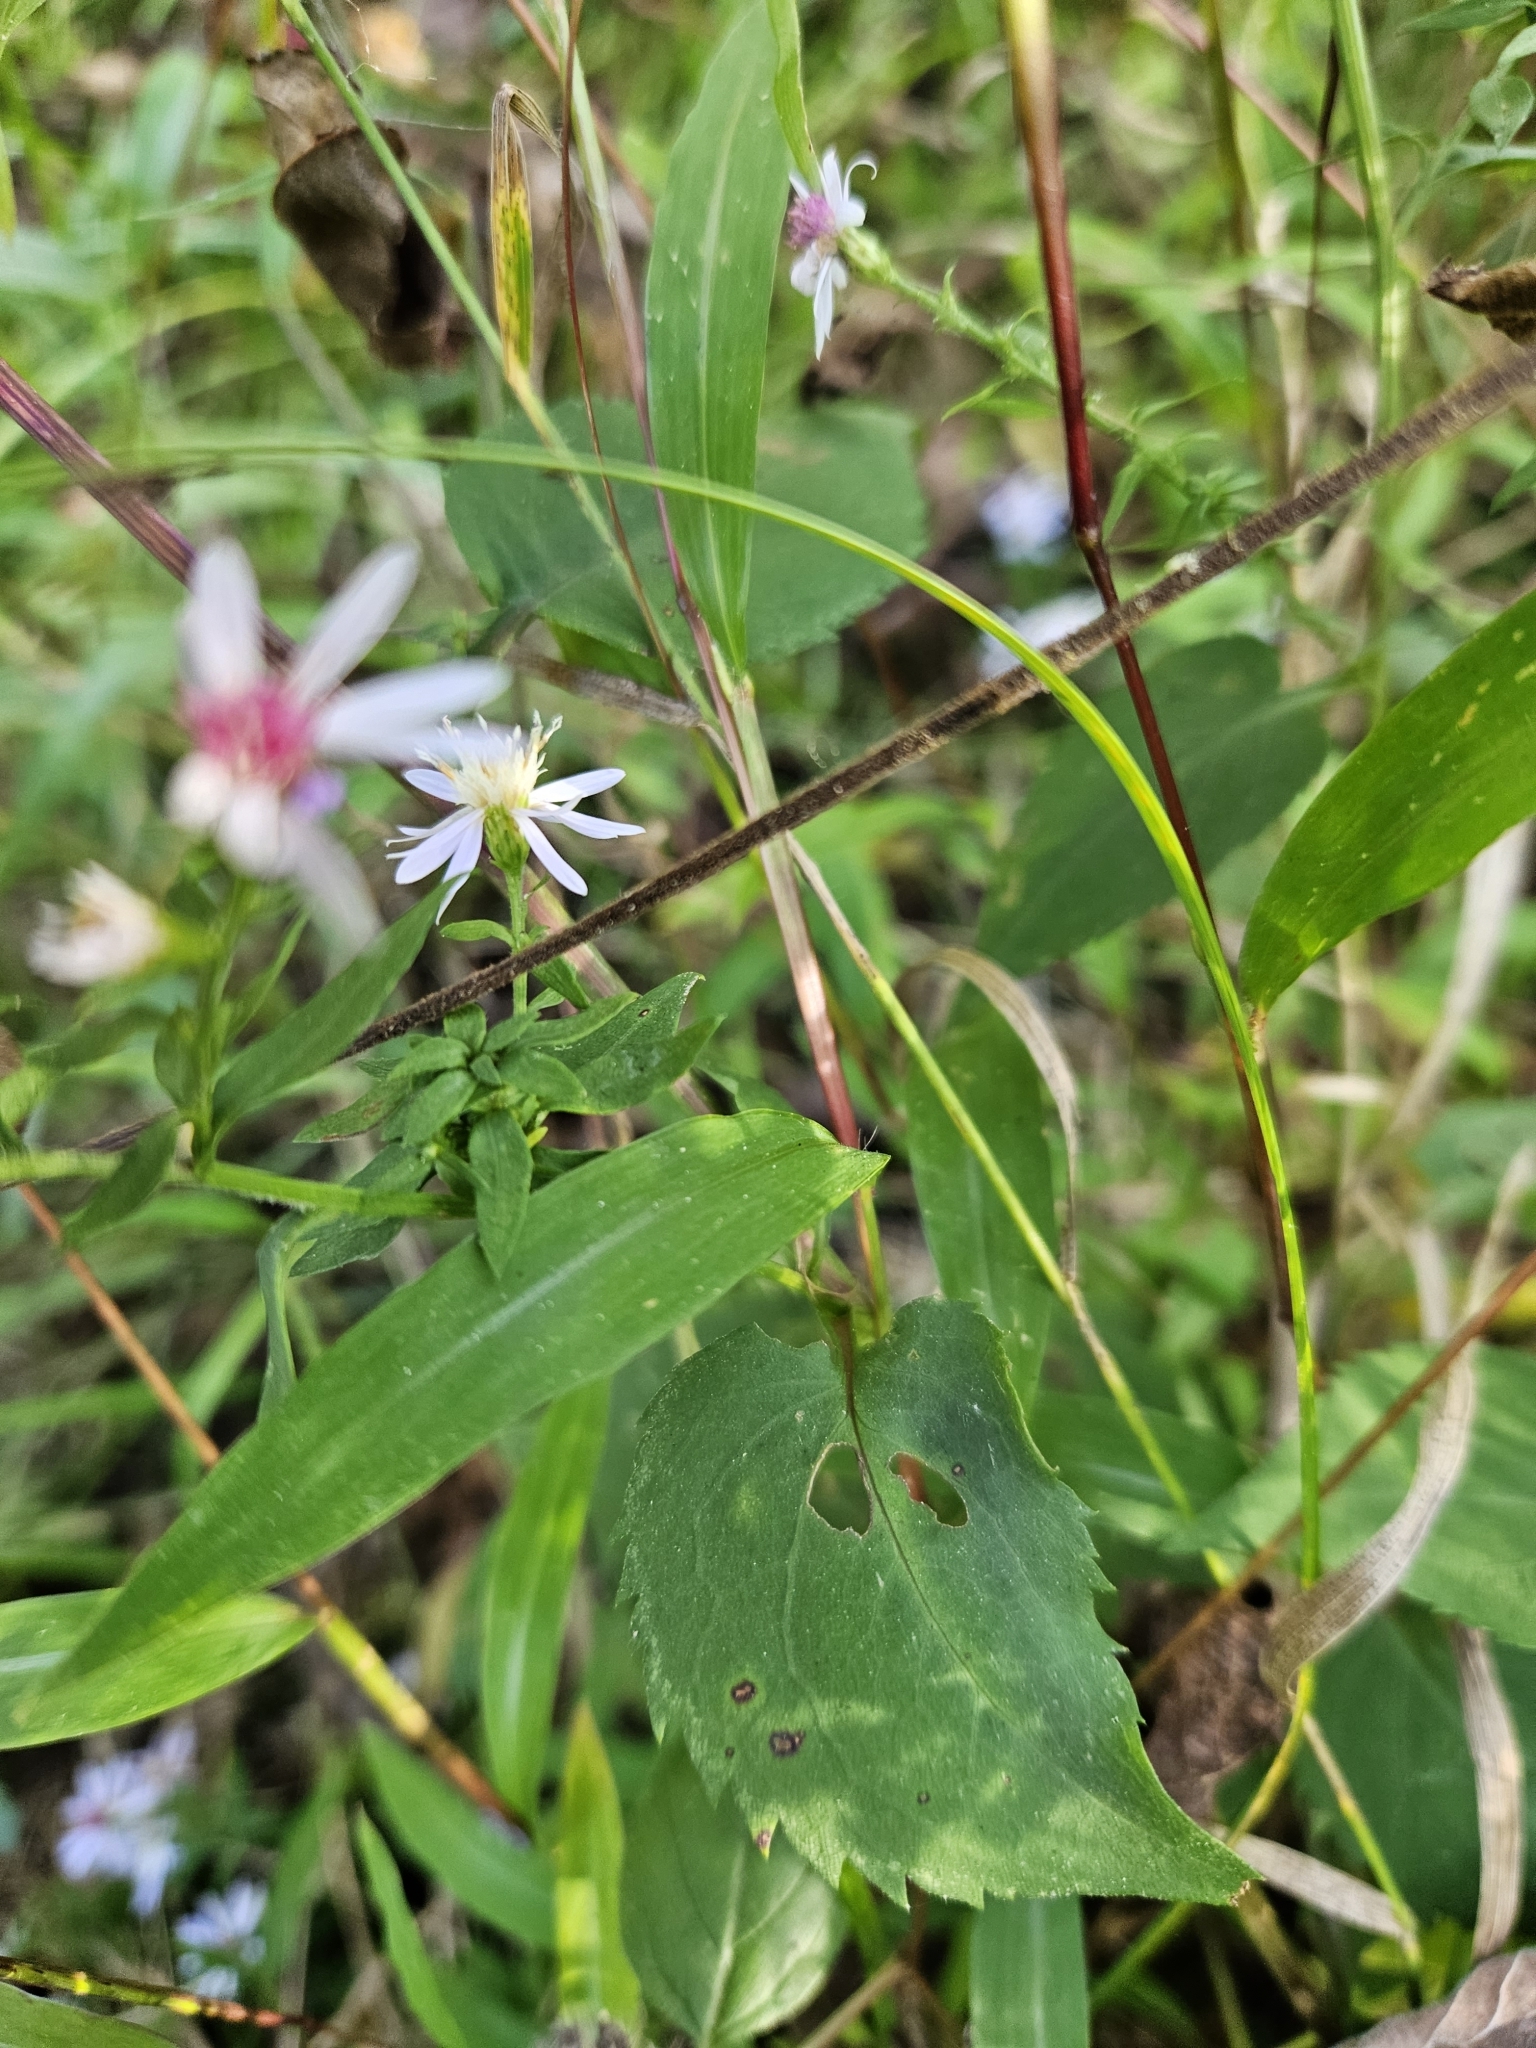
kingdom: Plantae
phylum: Tracheophyta
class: Magnoliopsida
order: Asterales
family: Asteraceae
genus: Symphyotrichum
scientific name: Symphyotrichum cordifolium
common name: Beeweed
